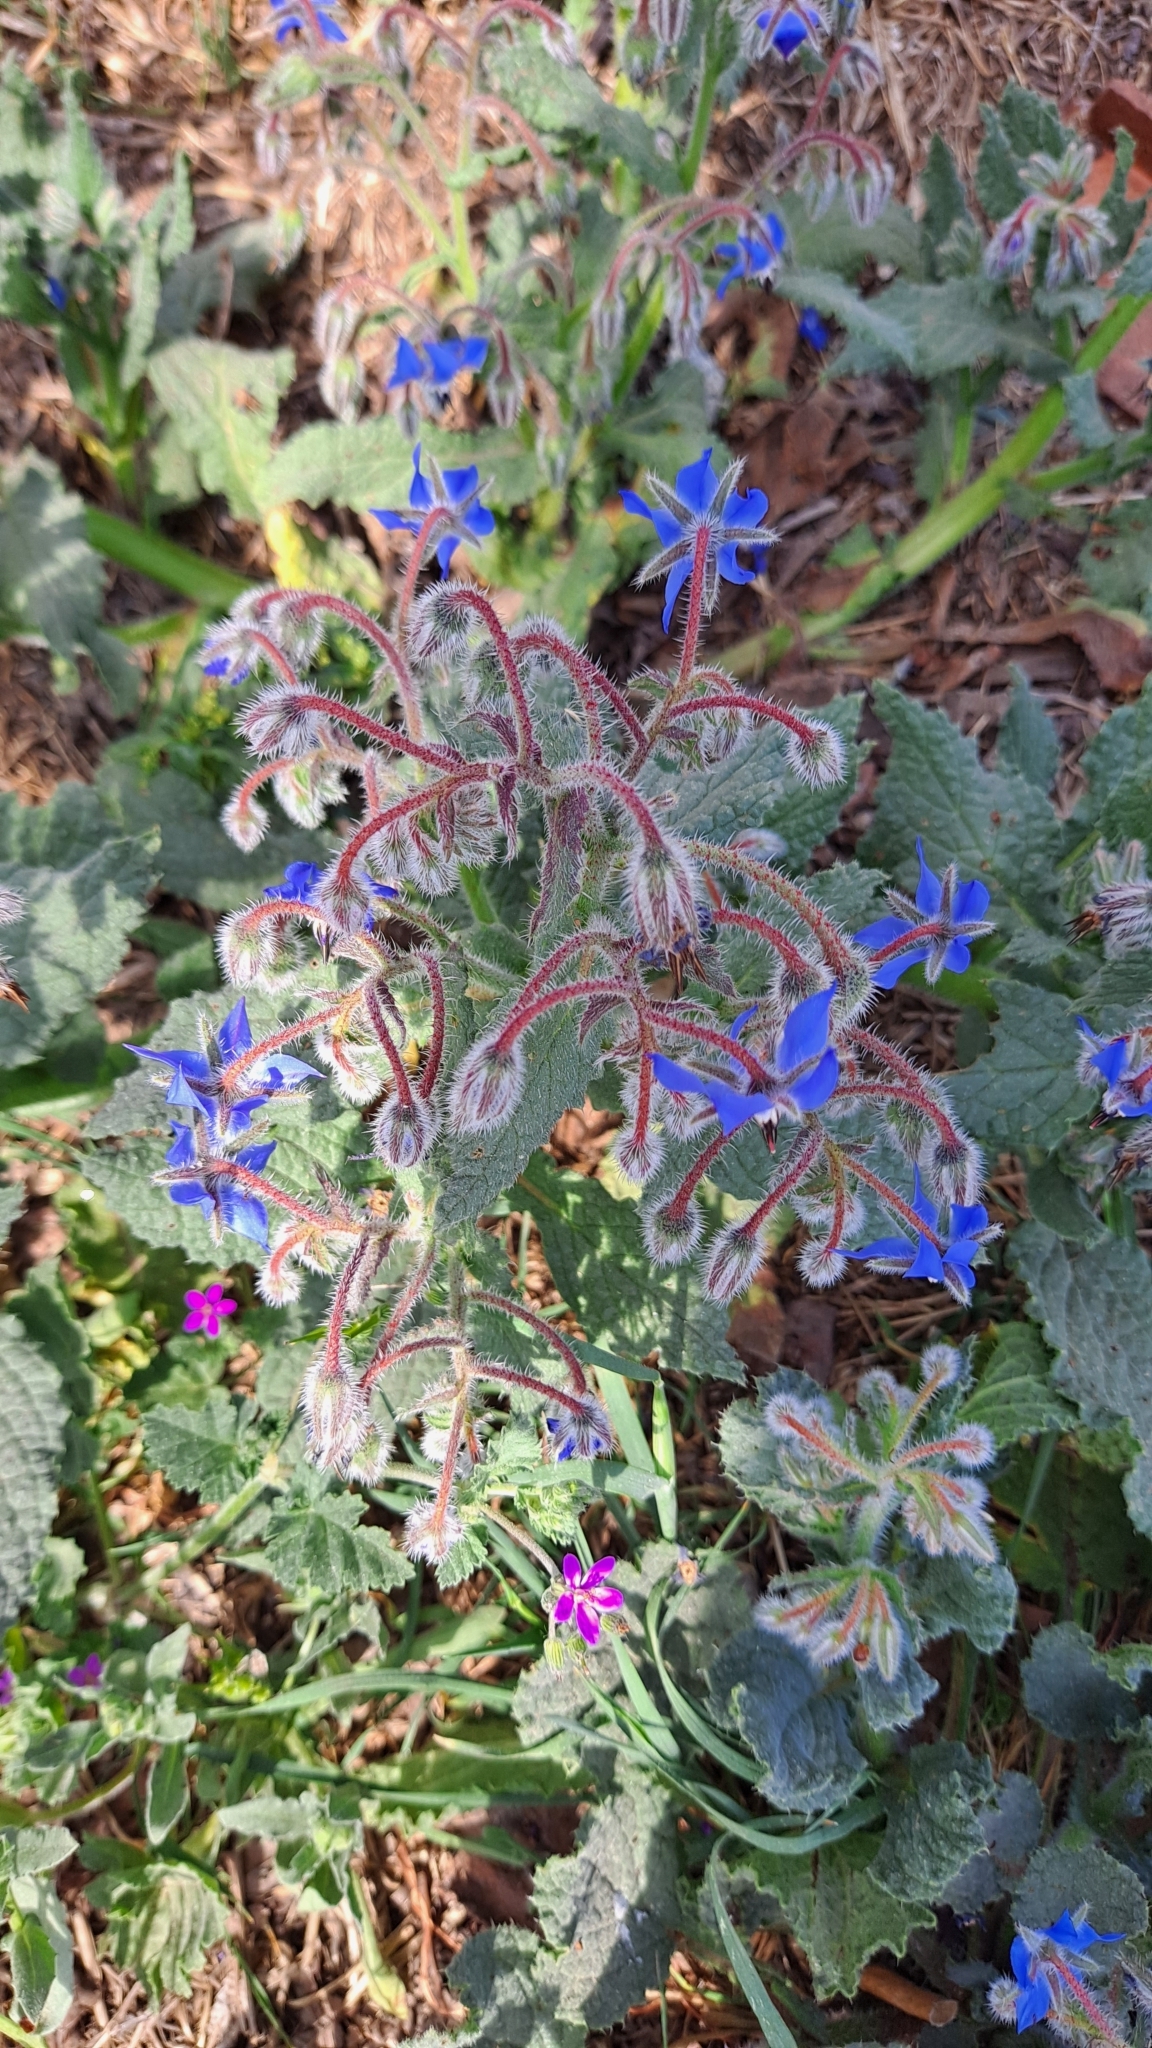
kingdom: Plantae
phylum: Tracheophyta
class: Magnoliopsida
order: Boraginales
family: Boraginaceae
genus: Borago
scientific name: Borago officinalis
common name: Borage
